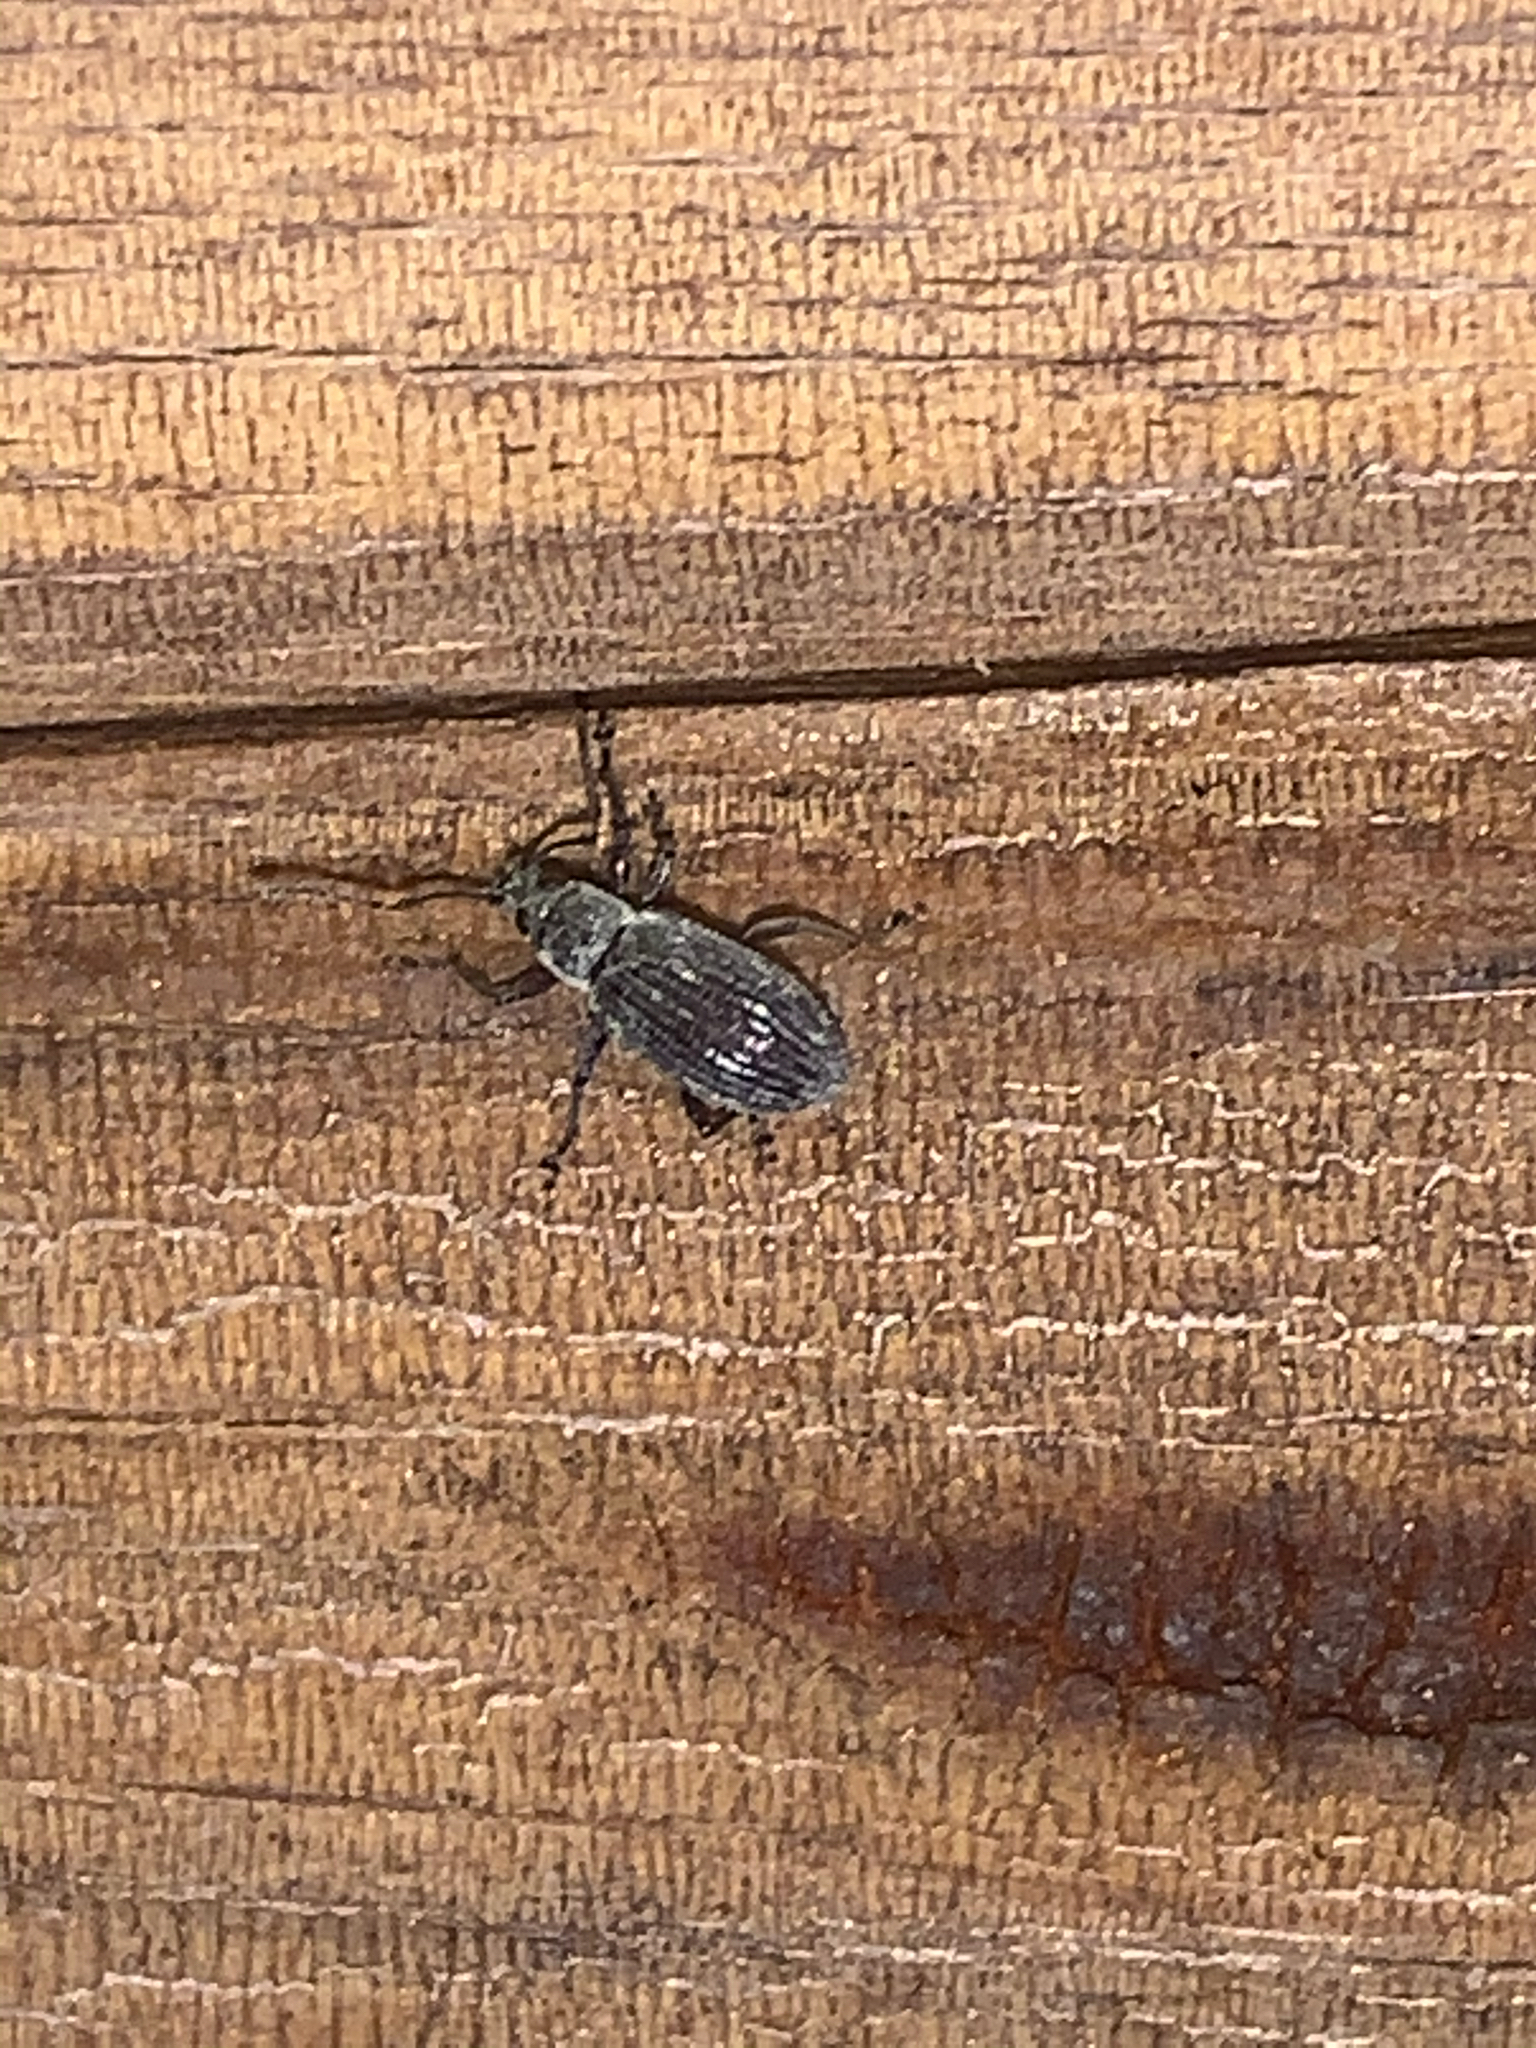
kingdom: Animalia
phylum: Arthropoda
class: Insecta
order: Coleoptera
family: Curculionidae
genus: Cyrtepistomus
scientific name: Cyrtepistomus castaneus
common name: Weevil
